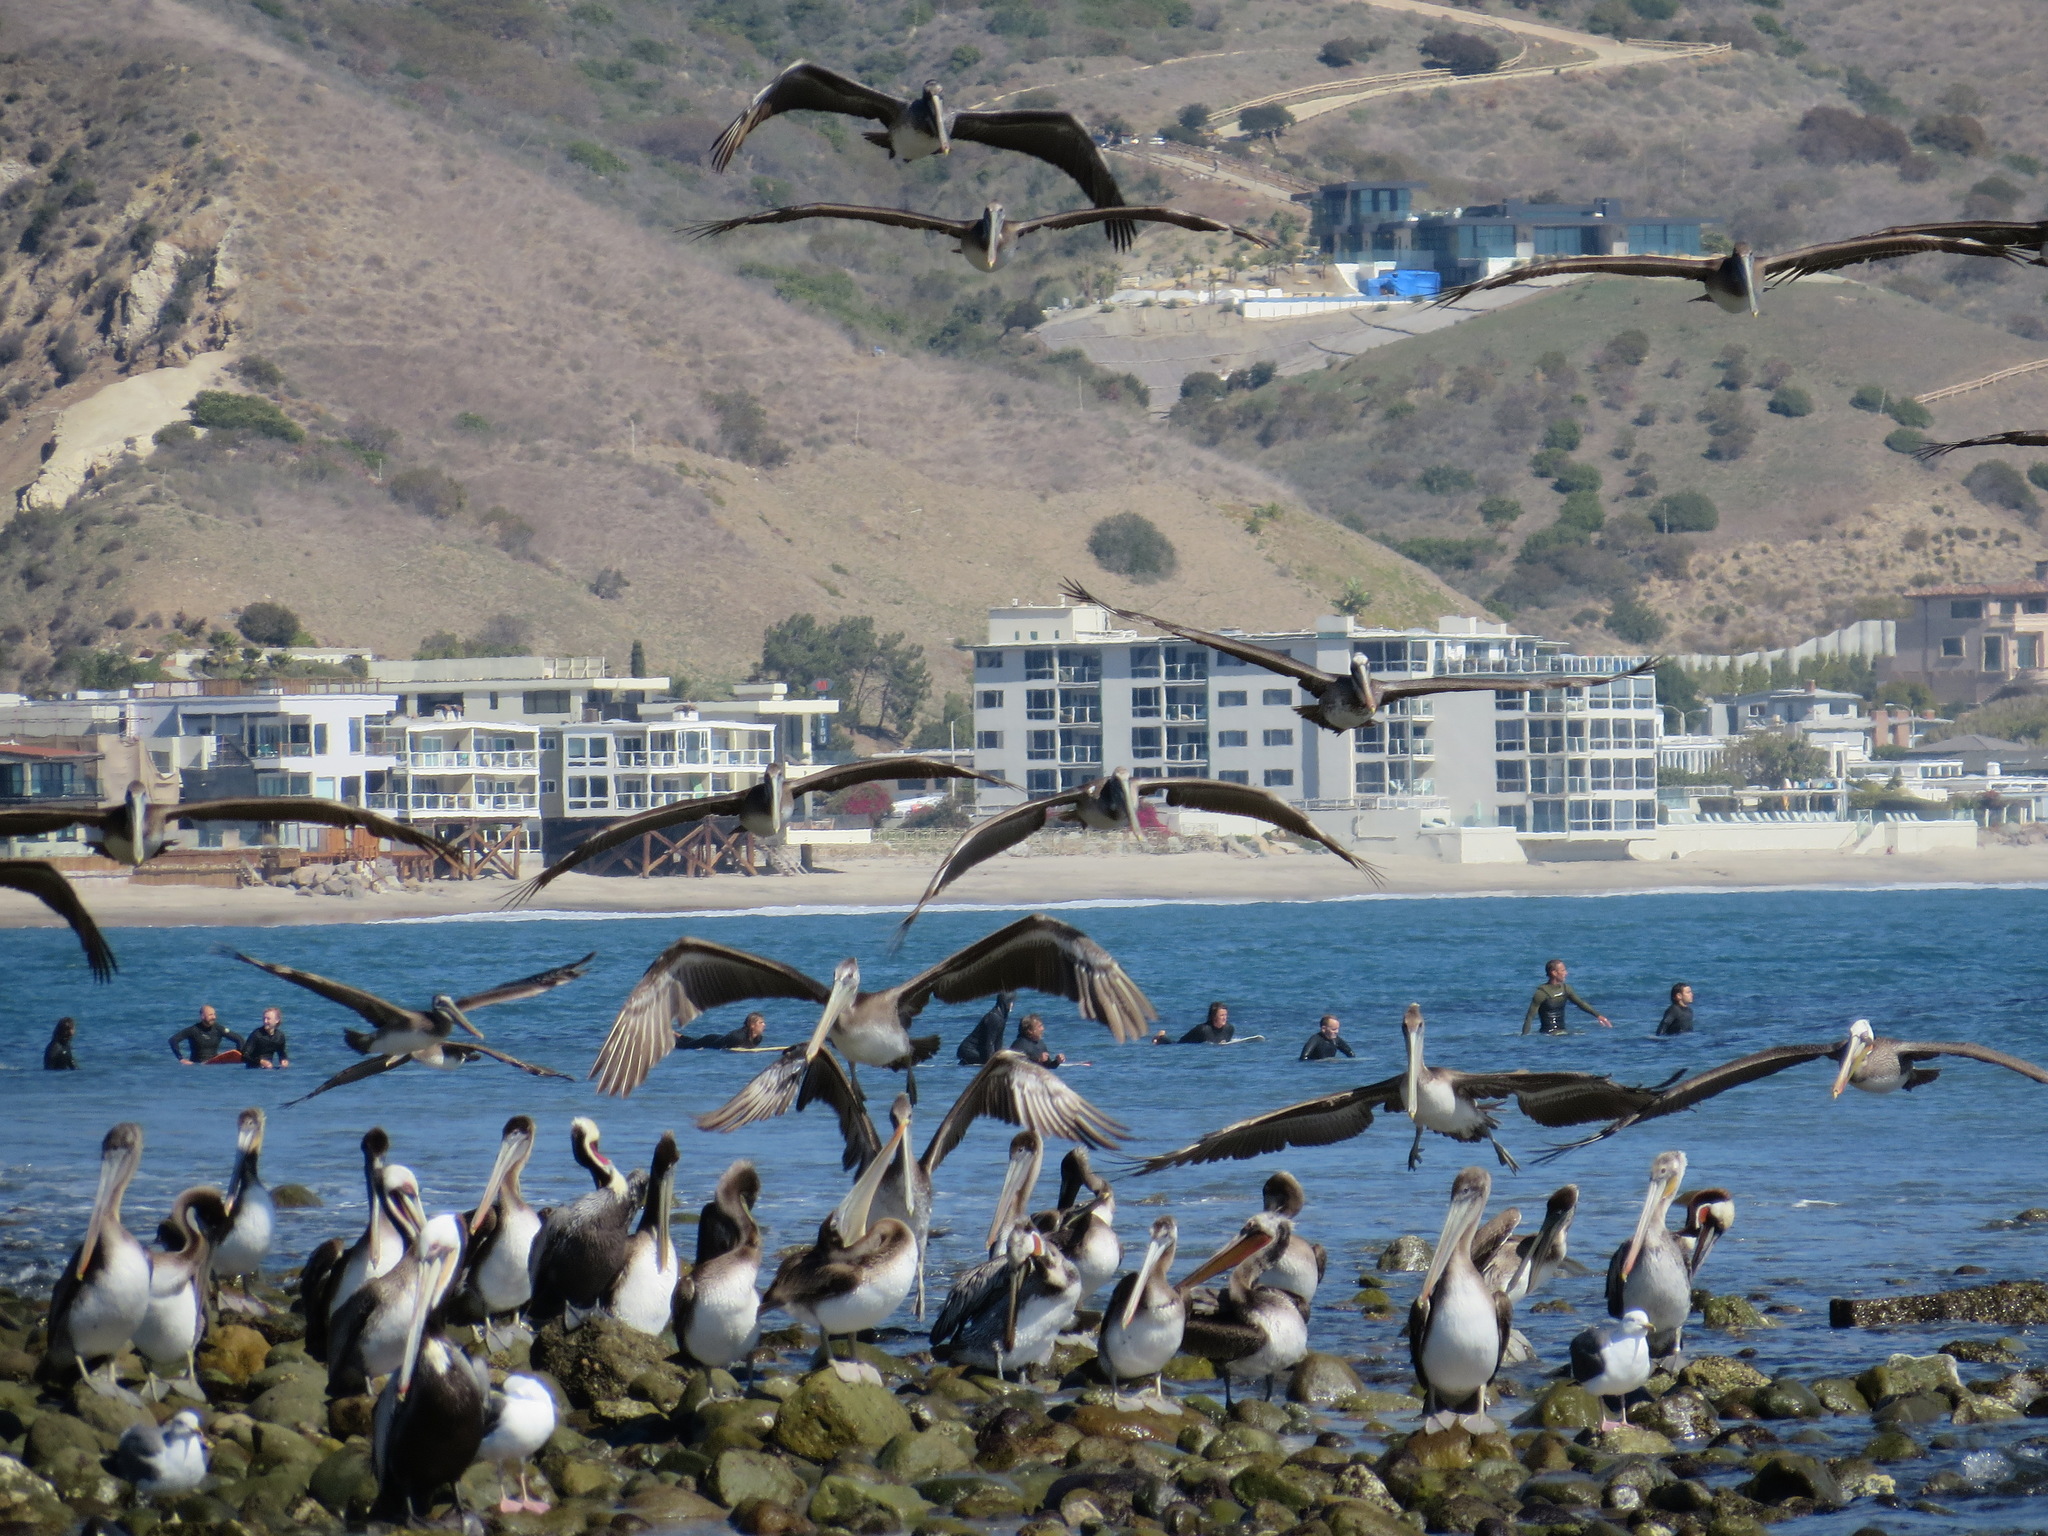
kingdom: Animalia
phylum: Chordata
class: Aves
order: Pelecaniformes
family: Pelecanidae
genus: Pelecanus
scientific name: Pelecanus occidentalis
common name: Brown pelican
